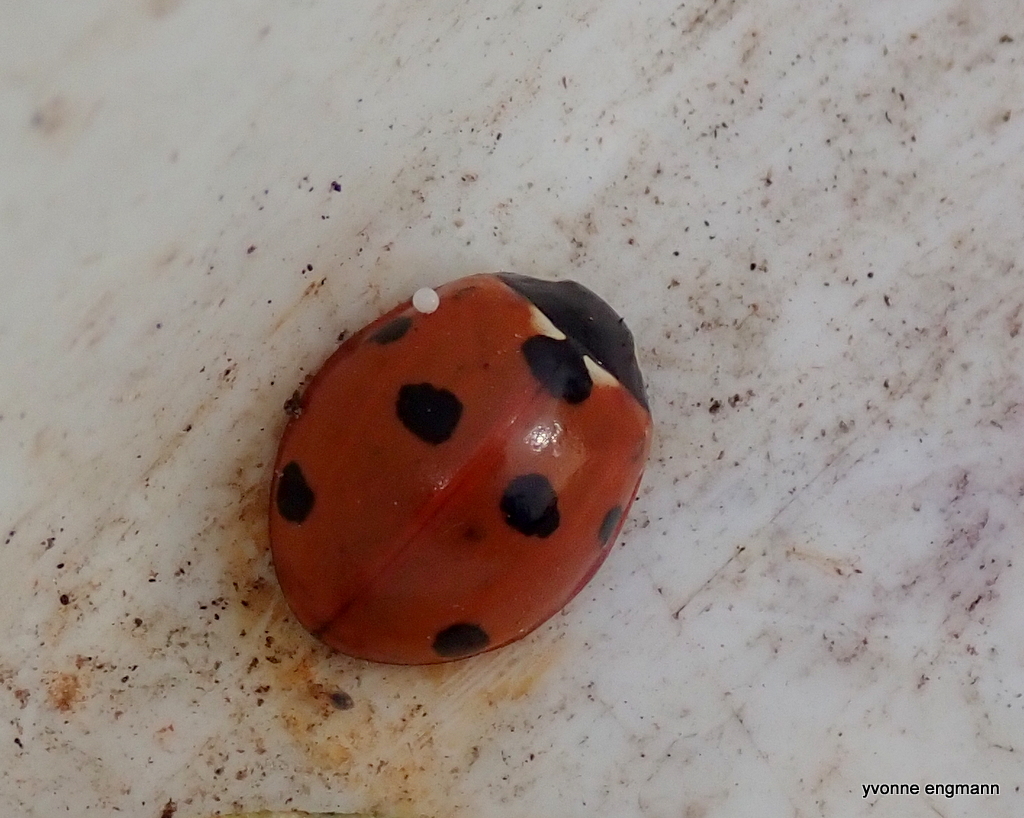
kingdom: Animalia
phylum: Arthropoda
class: Insecta
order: Coleoptera
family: Coccinellidae
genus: Coccinella
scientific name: Coccinella septempunctata
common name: Sevenspotted lady beetle
